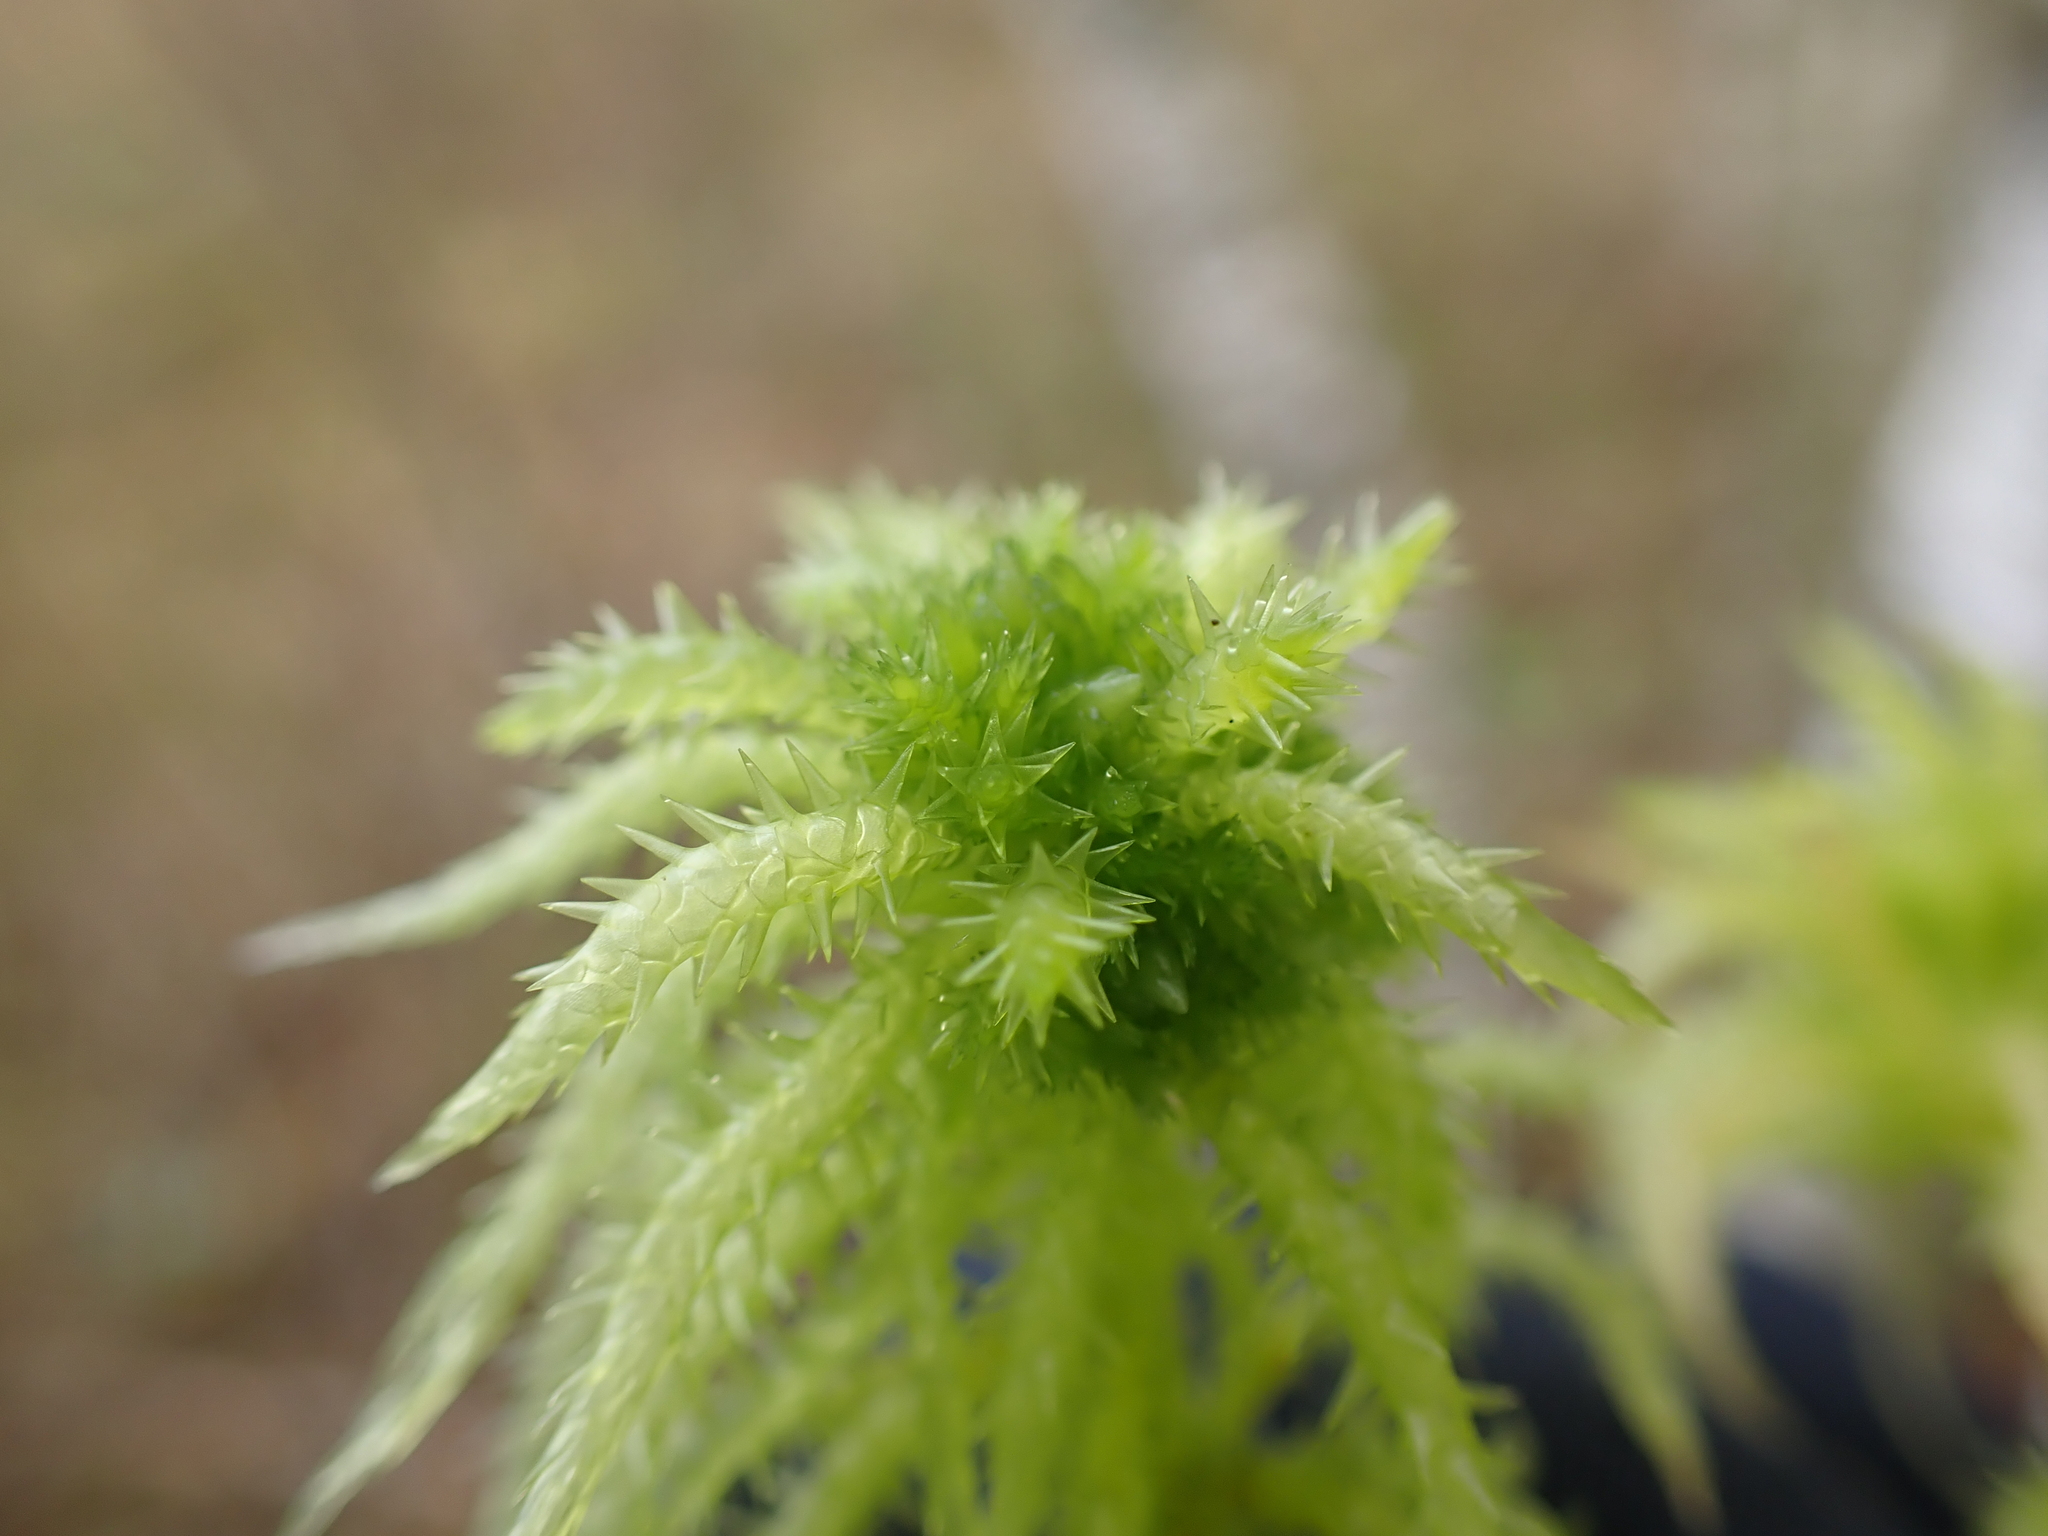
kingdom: Plantae
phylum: Bryophyta
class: Sphagnopsida
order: Sphagnales
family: Sphagnaceae
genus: Sphagnum
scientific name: Sphagnum squarrosum
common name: Shaggy peat moss
